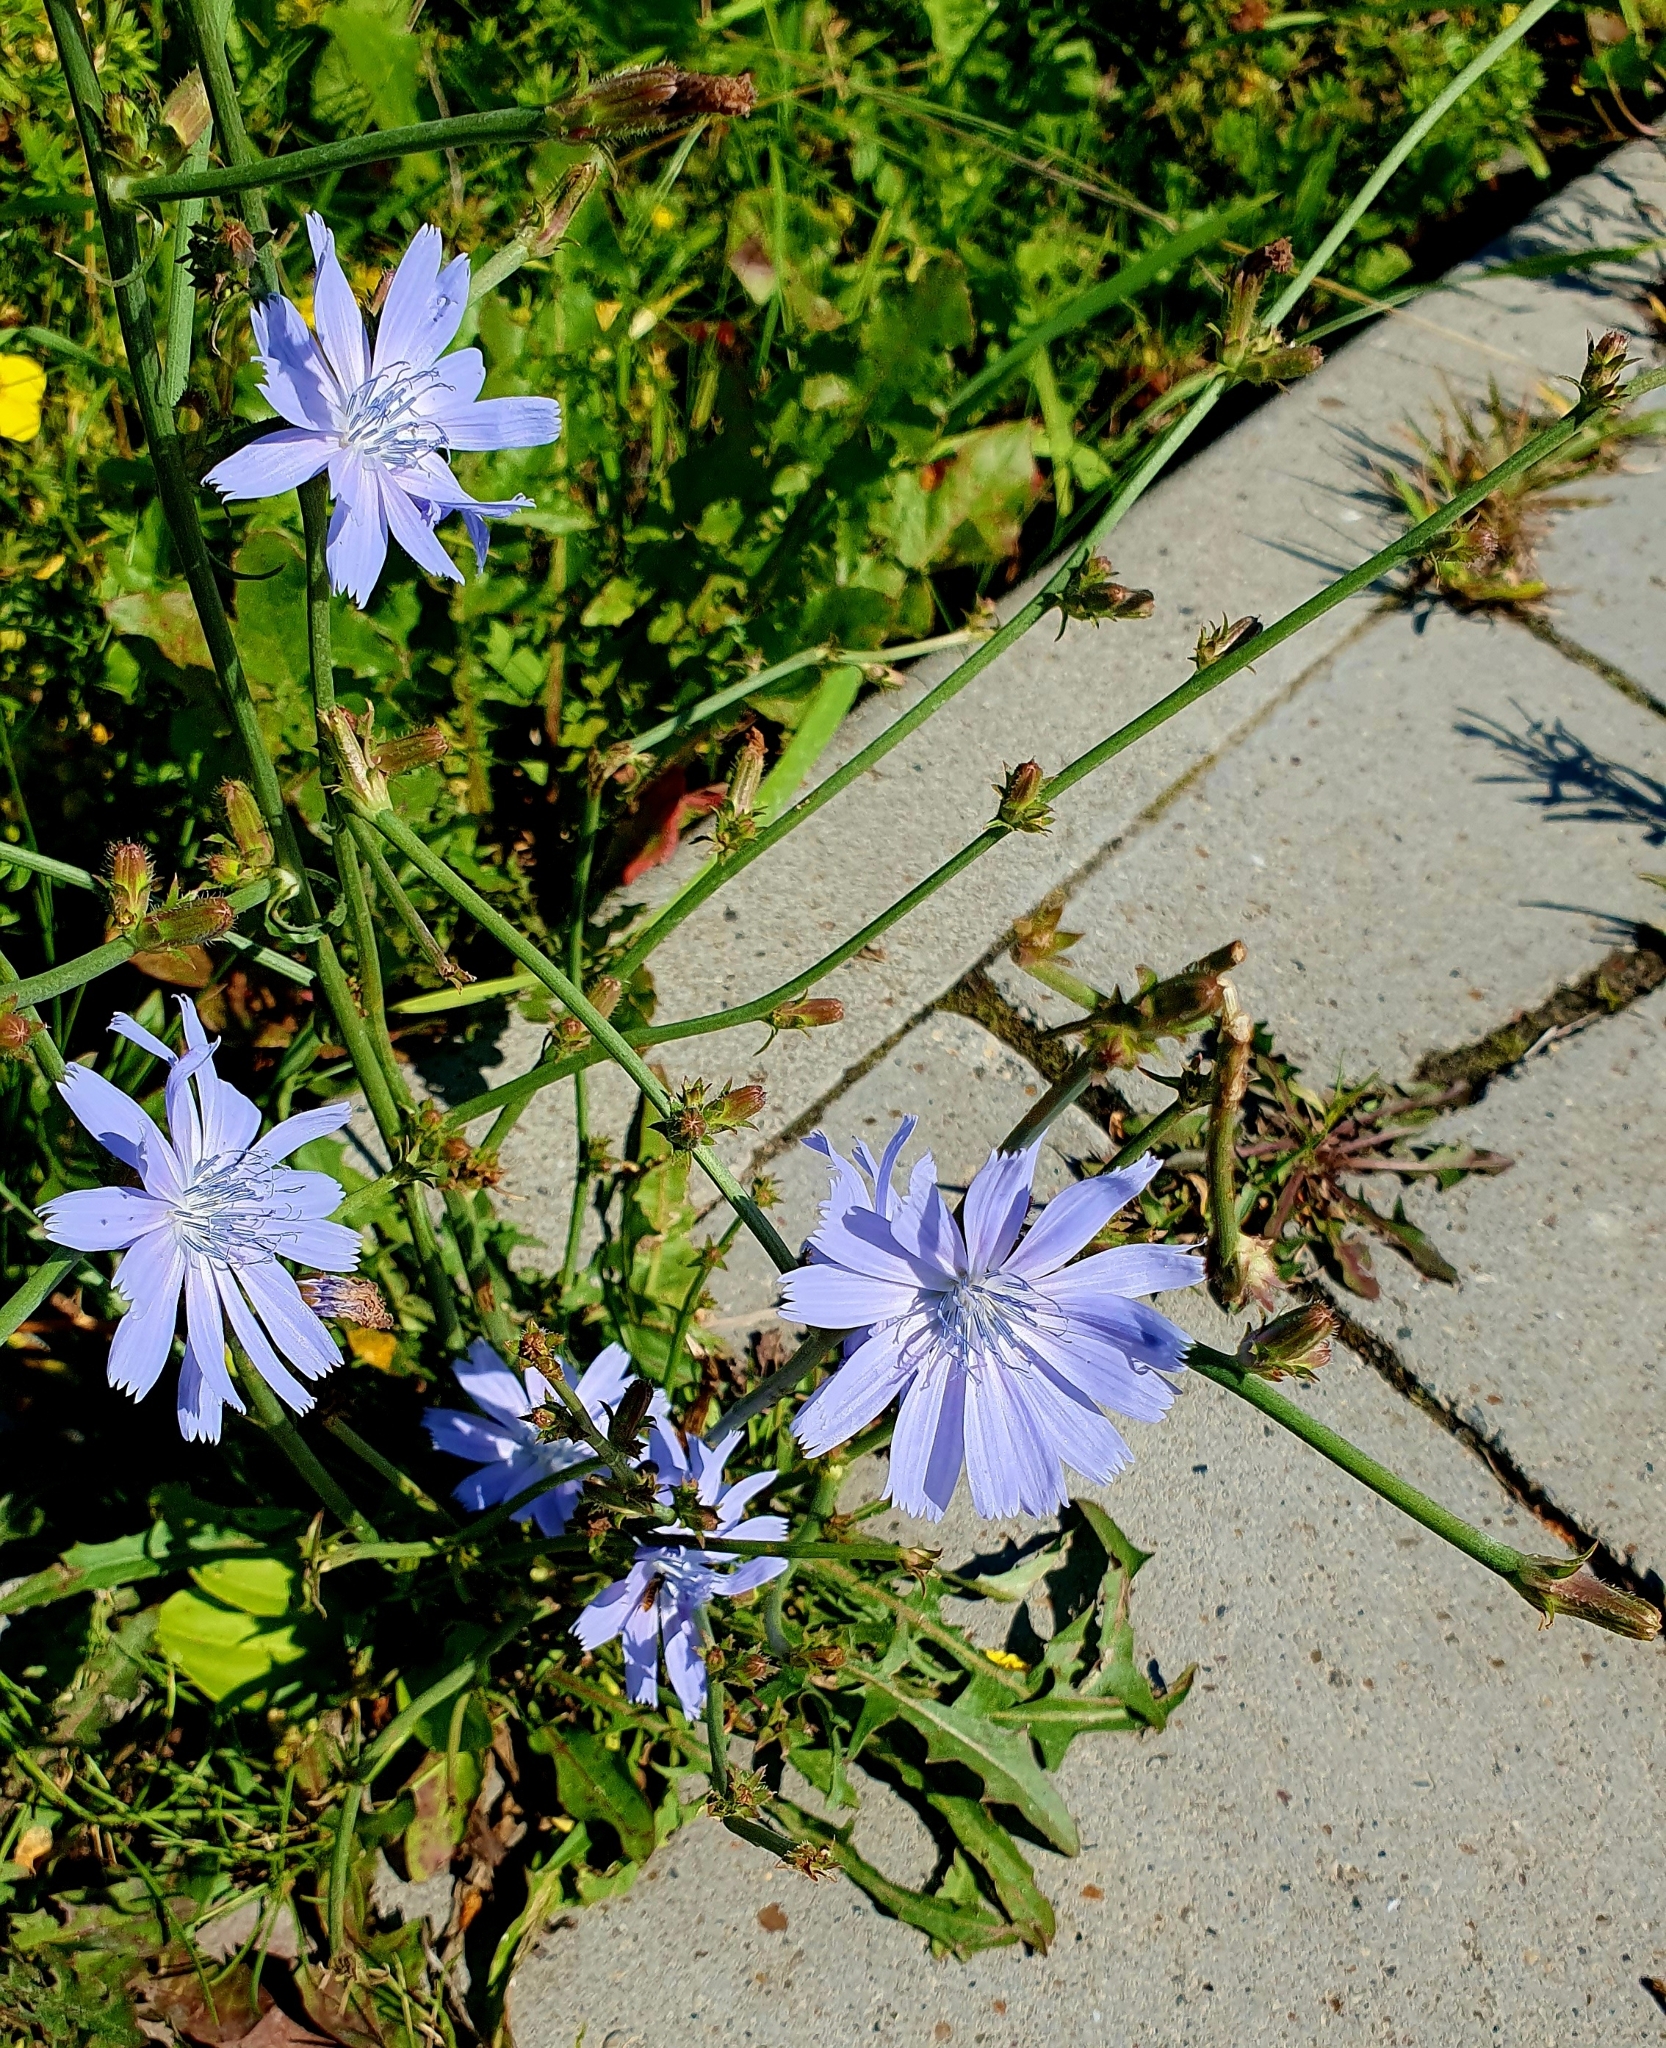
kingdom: Plantae
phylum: Tracheophyta
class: Magnoliopsida
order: Asterales
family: Asteraceae
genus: Cichorium
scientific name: Cichorium intybus
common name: Chicory
